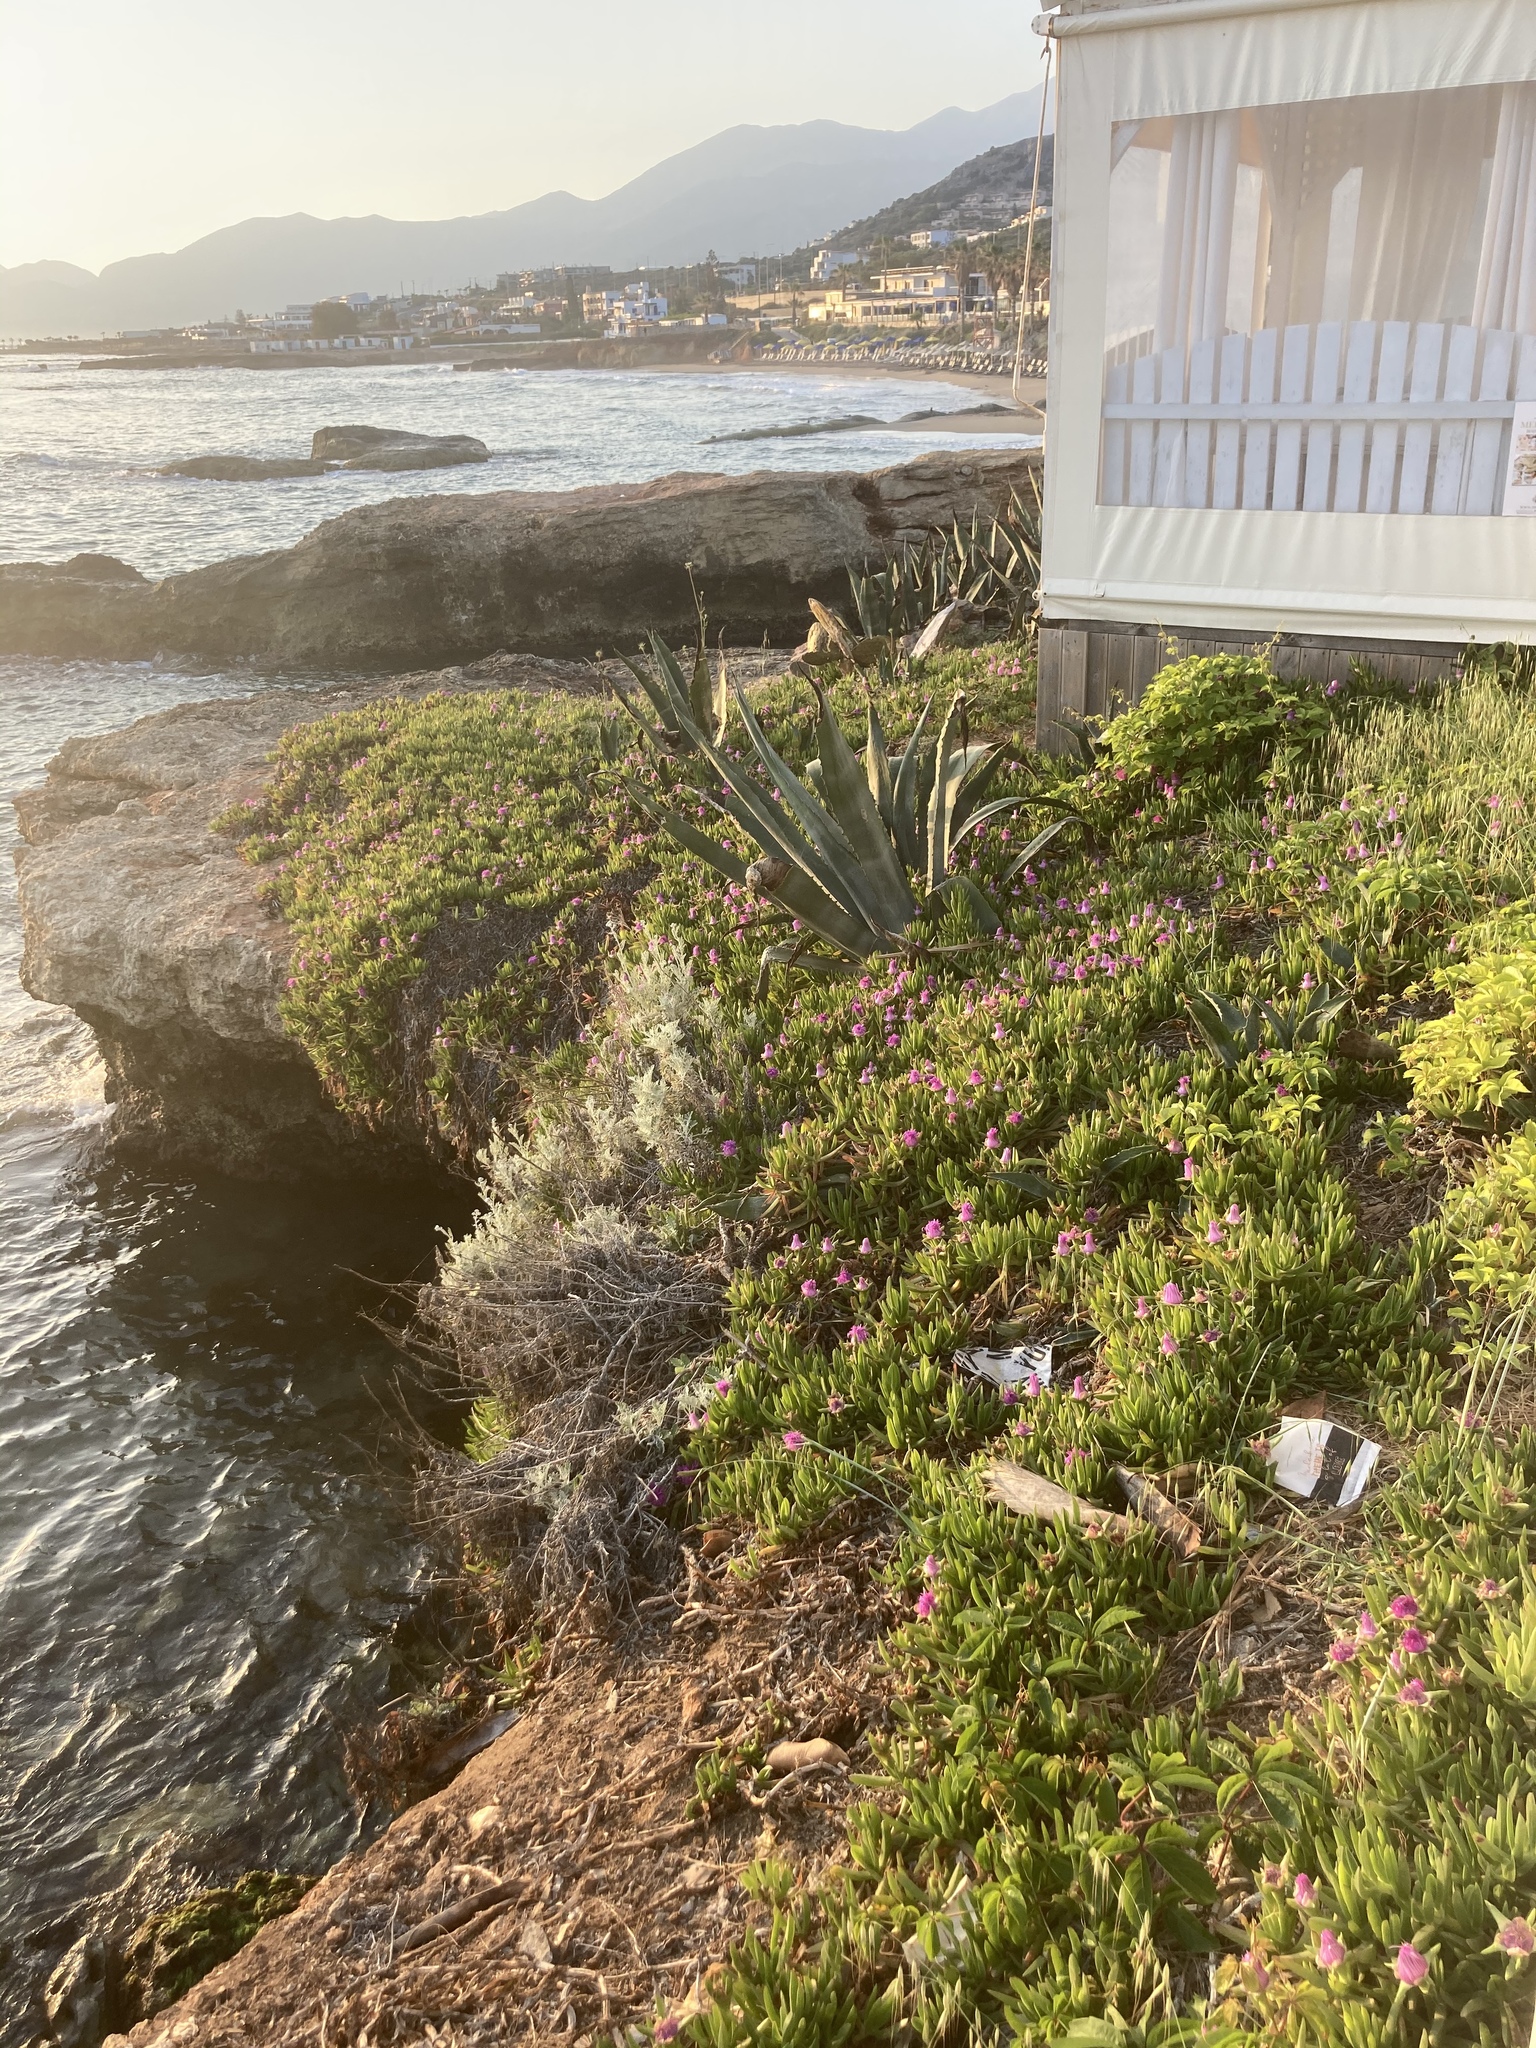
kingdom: Plantae
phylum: Tracheophyta
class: Magnoliopsida
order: Caryophyllales
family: Aizoaceae
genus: Carpobrotus
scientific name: Carpobrotus acinaciformis
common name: Sally-my-handsome
